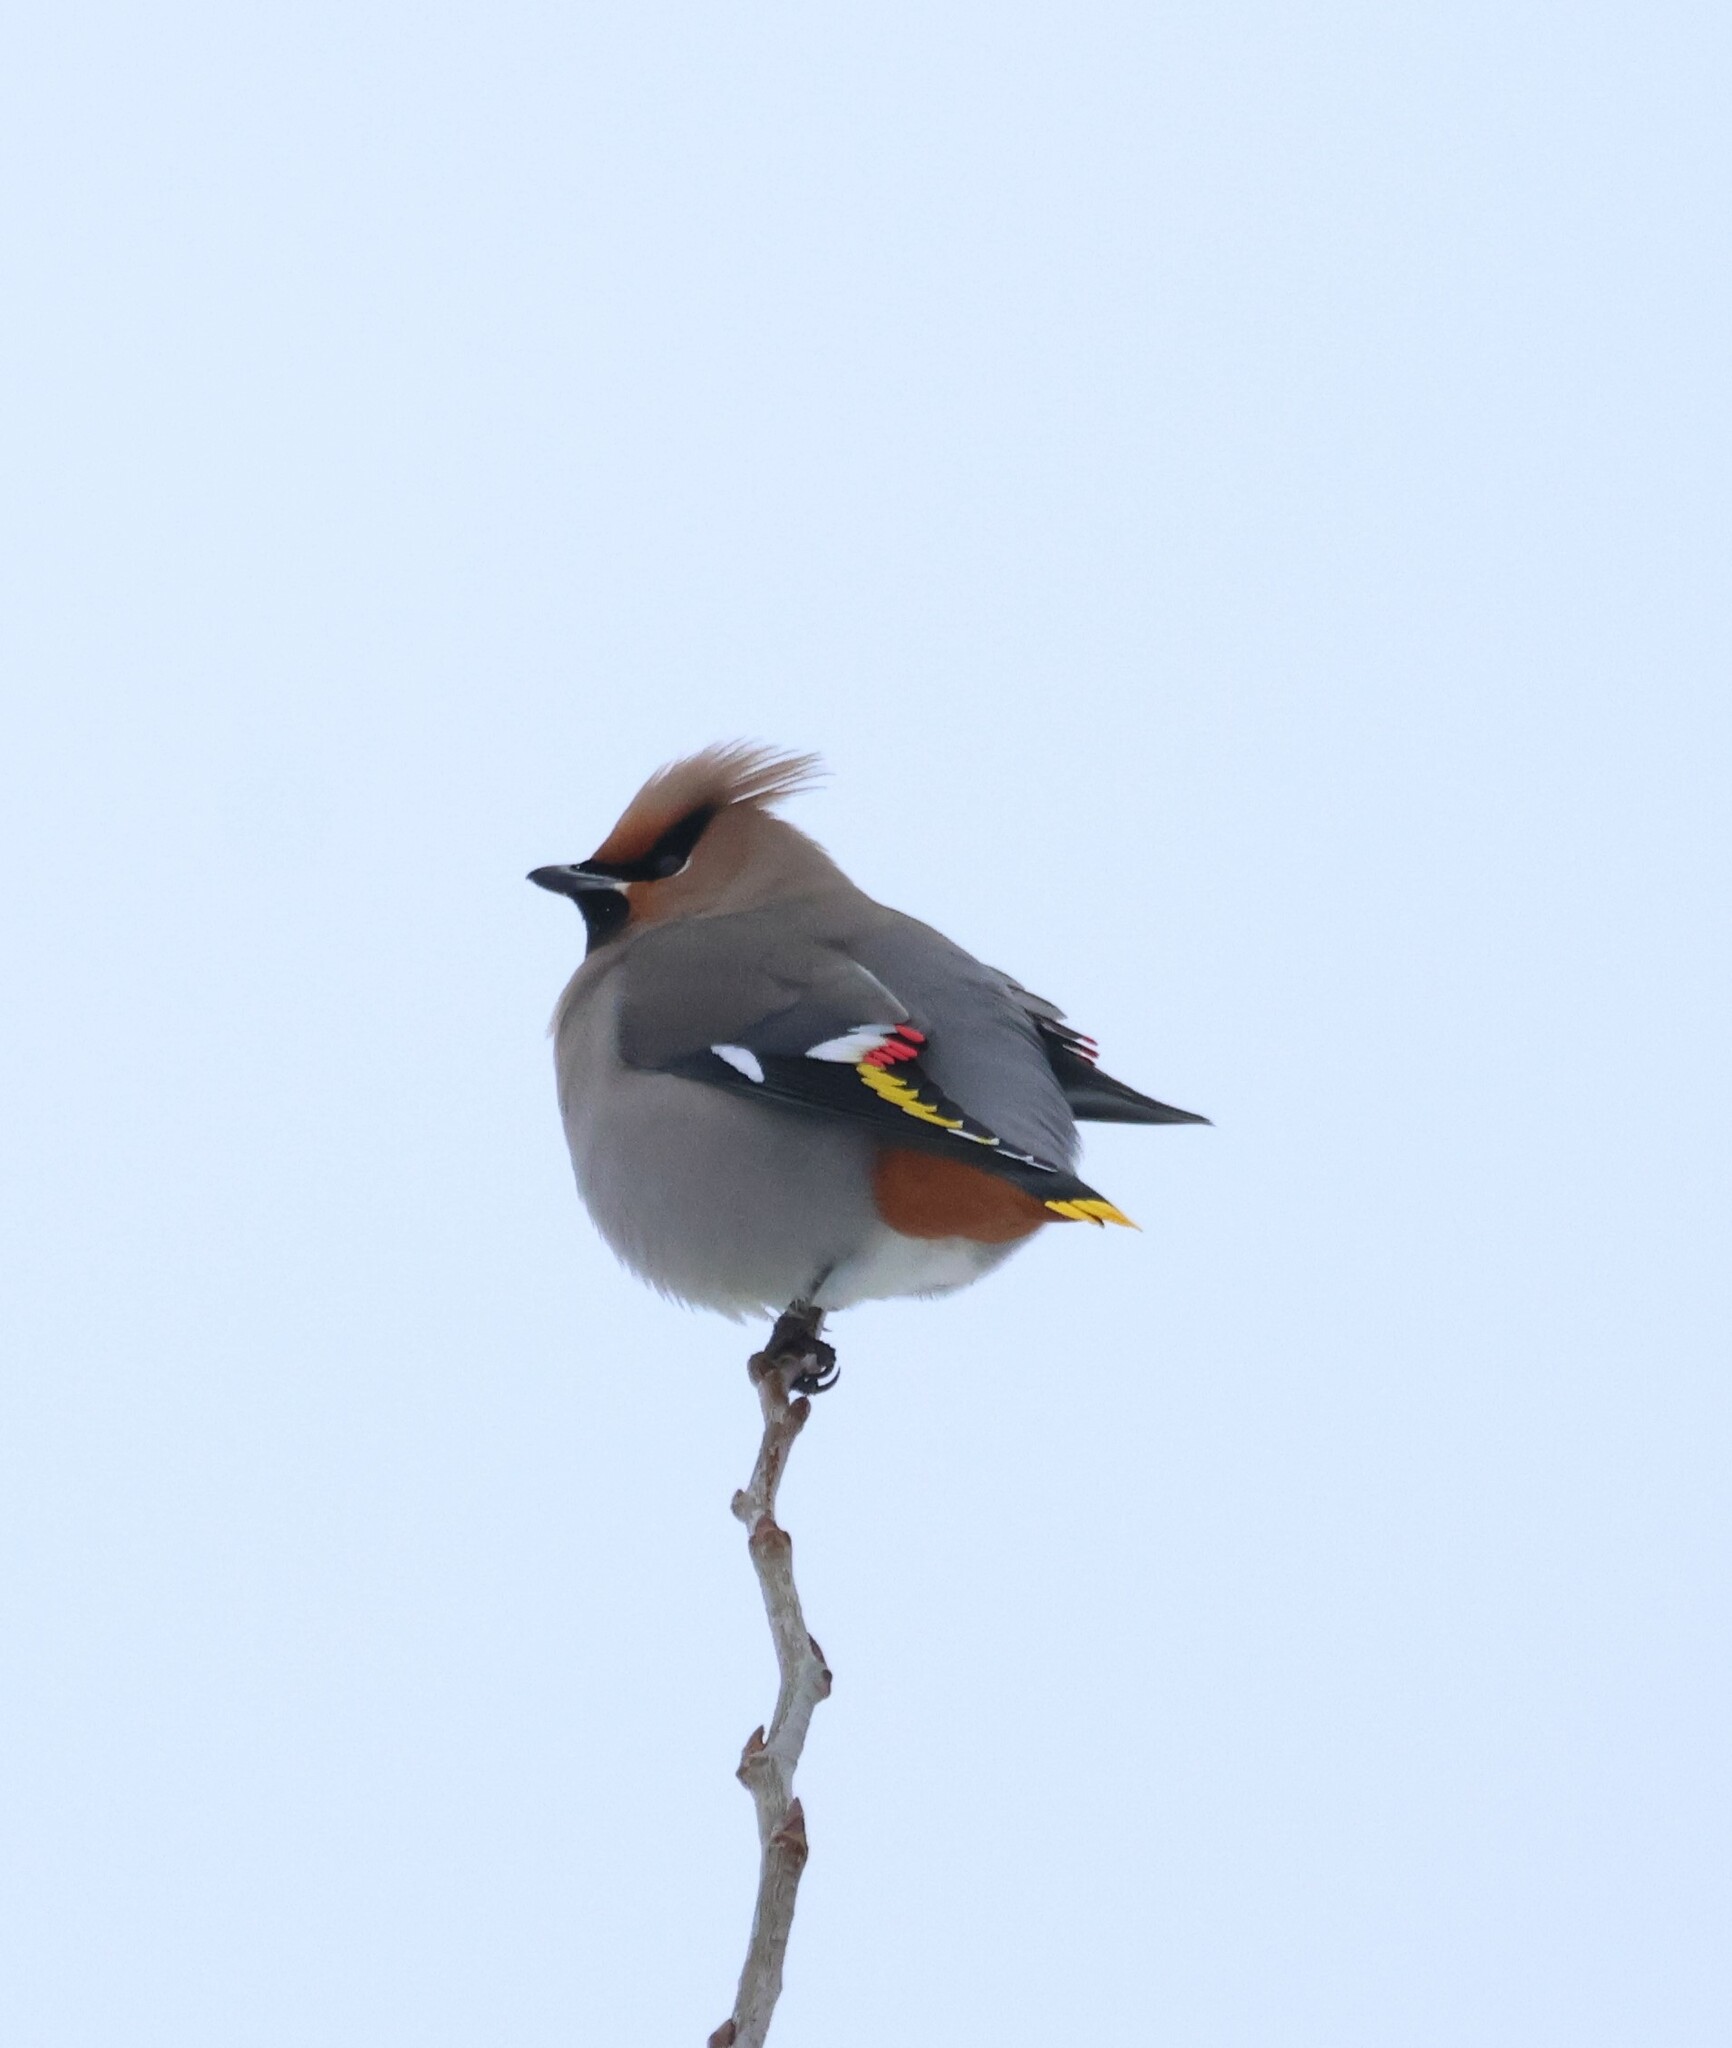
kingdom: Animalia
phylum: Chordata
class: Aves
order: Passeriformes
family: Bombycillidae
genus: Bombycilla
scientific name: Bombycilla garrulus
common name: Bohemian waxwing
